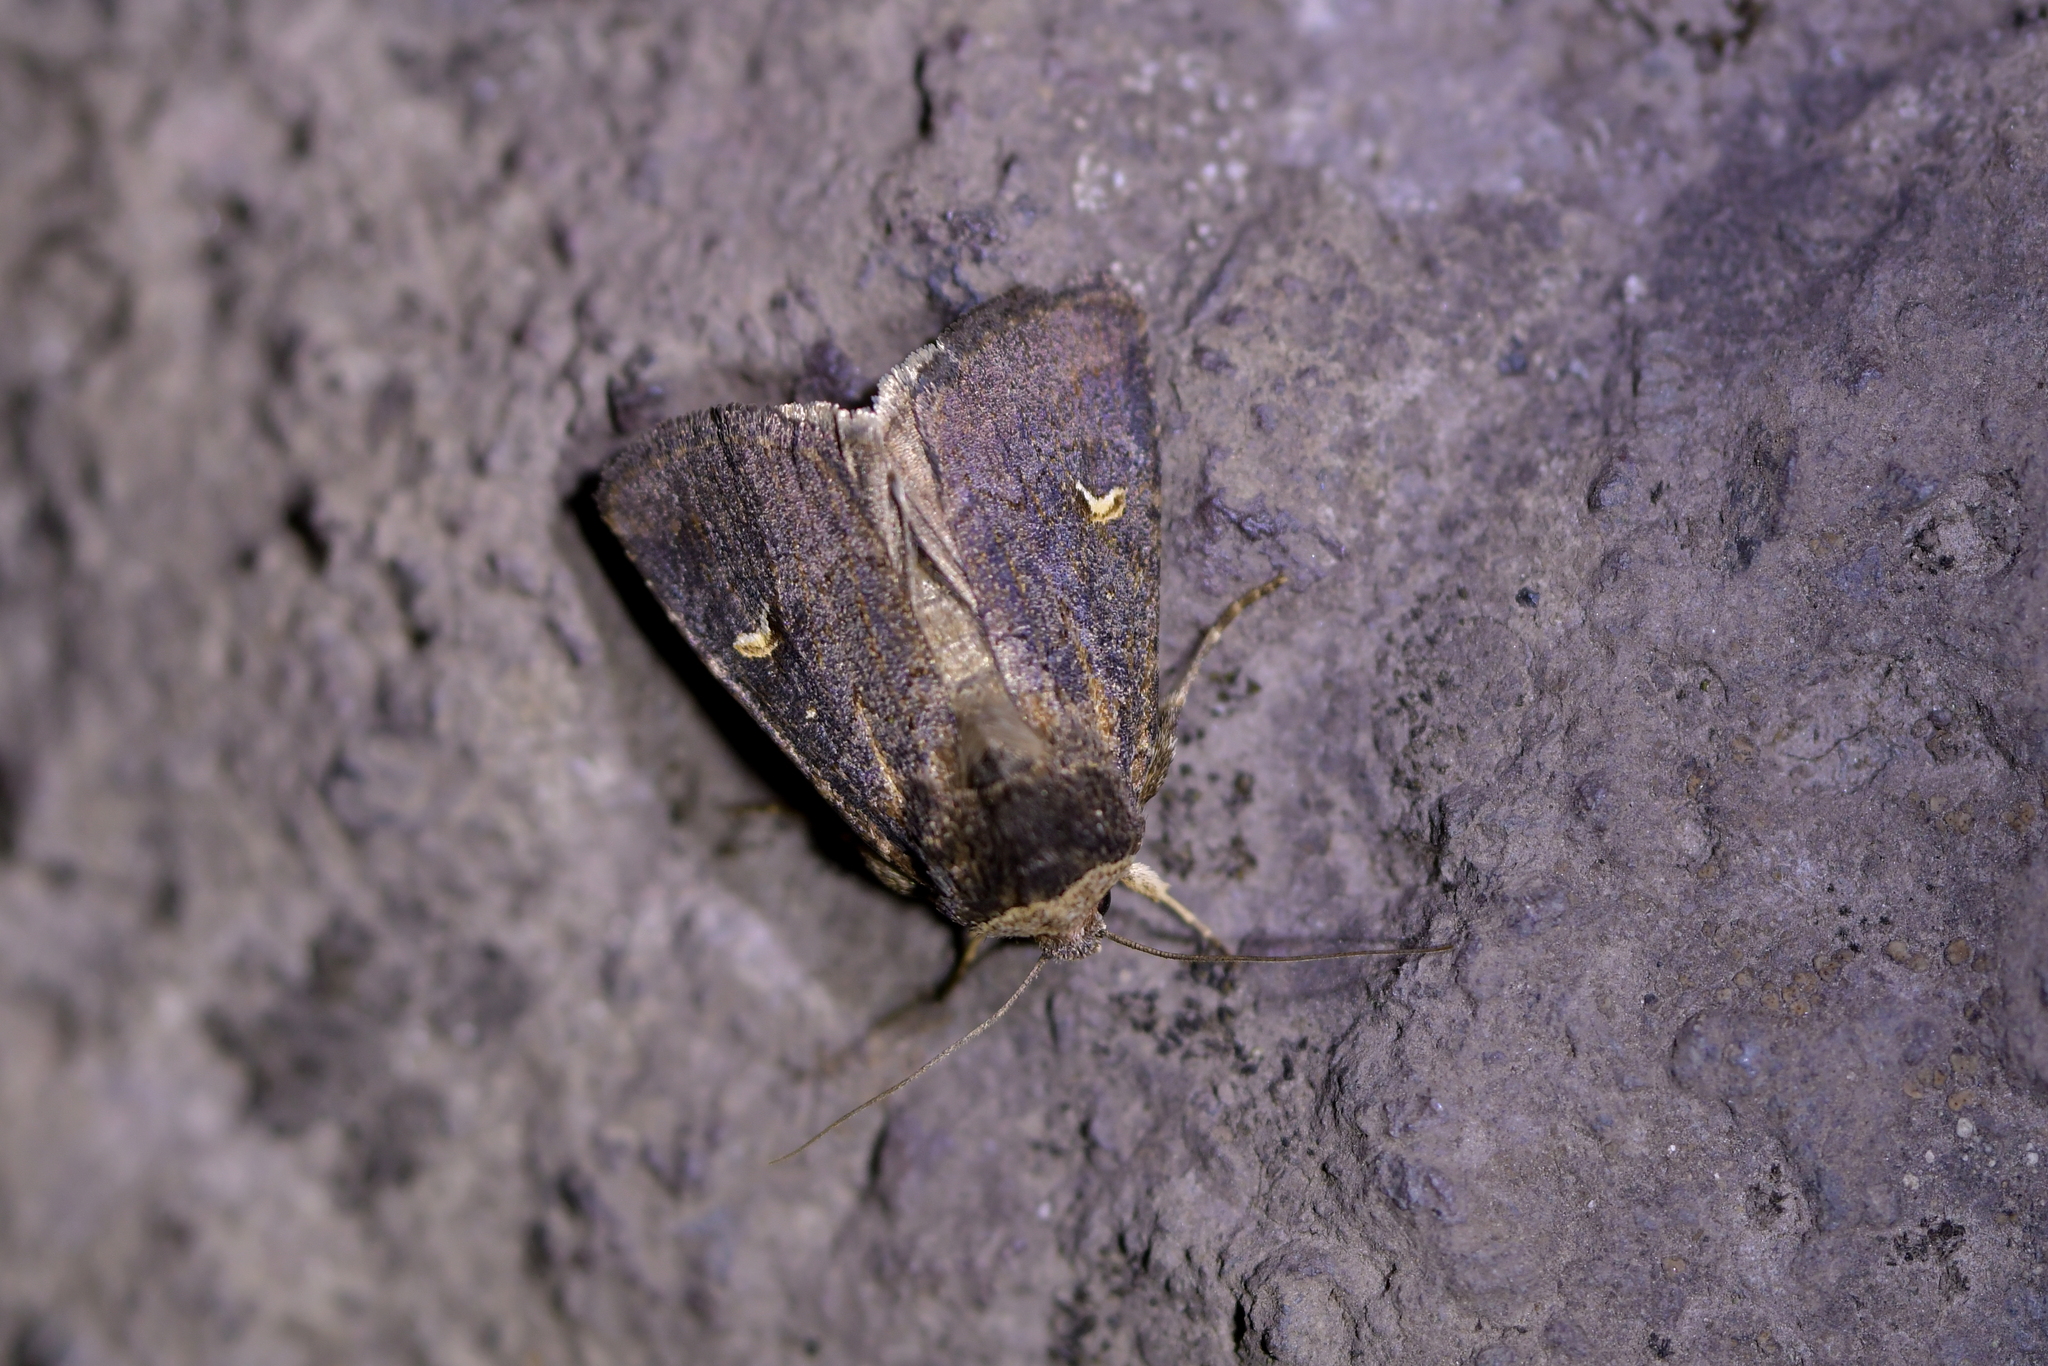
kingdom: Animalia
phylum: Arthropoda
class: Insecta
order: Lepidoptera
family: Noctuidae
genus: Proteuxoa
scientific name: Proteuxoa tetronycha
